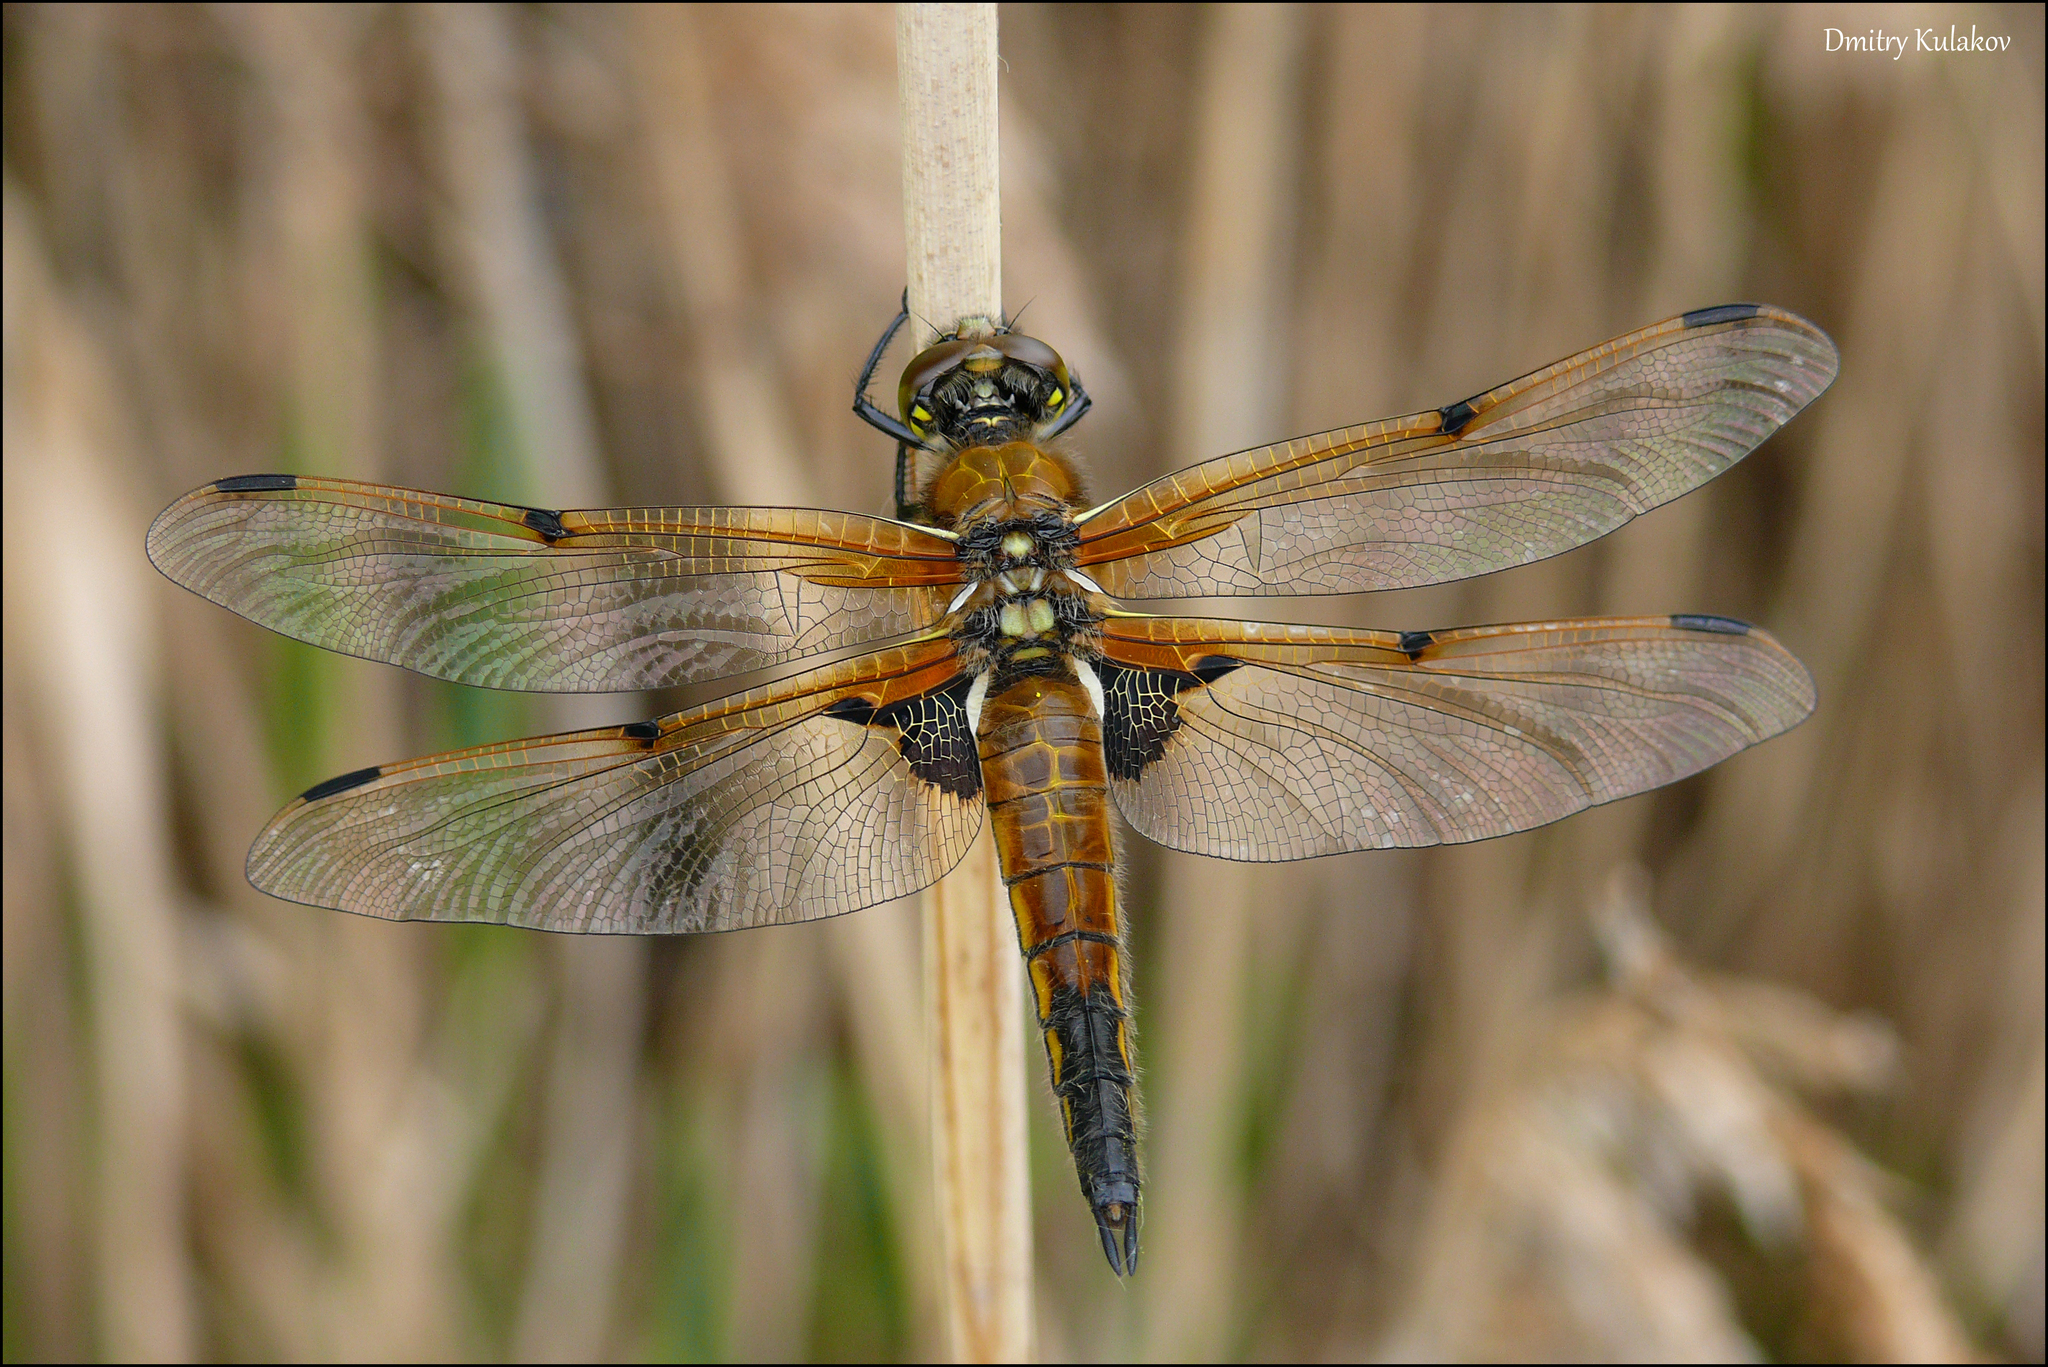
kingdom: Animalia
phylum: Arthropoda
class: Insecta
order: Odonata
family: Libellulidae
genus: Libellula
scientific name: Libellula quadrimaculata
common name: Four-spotted chaser
